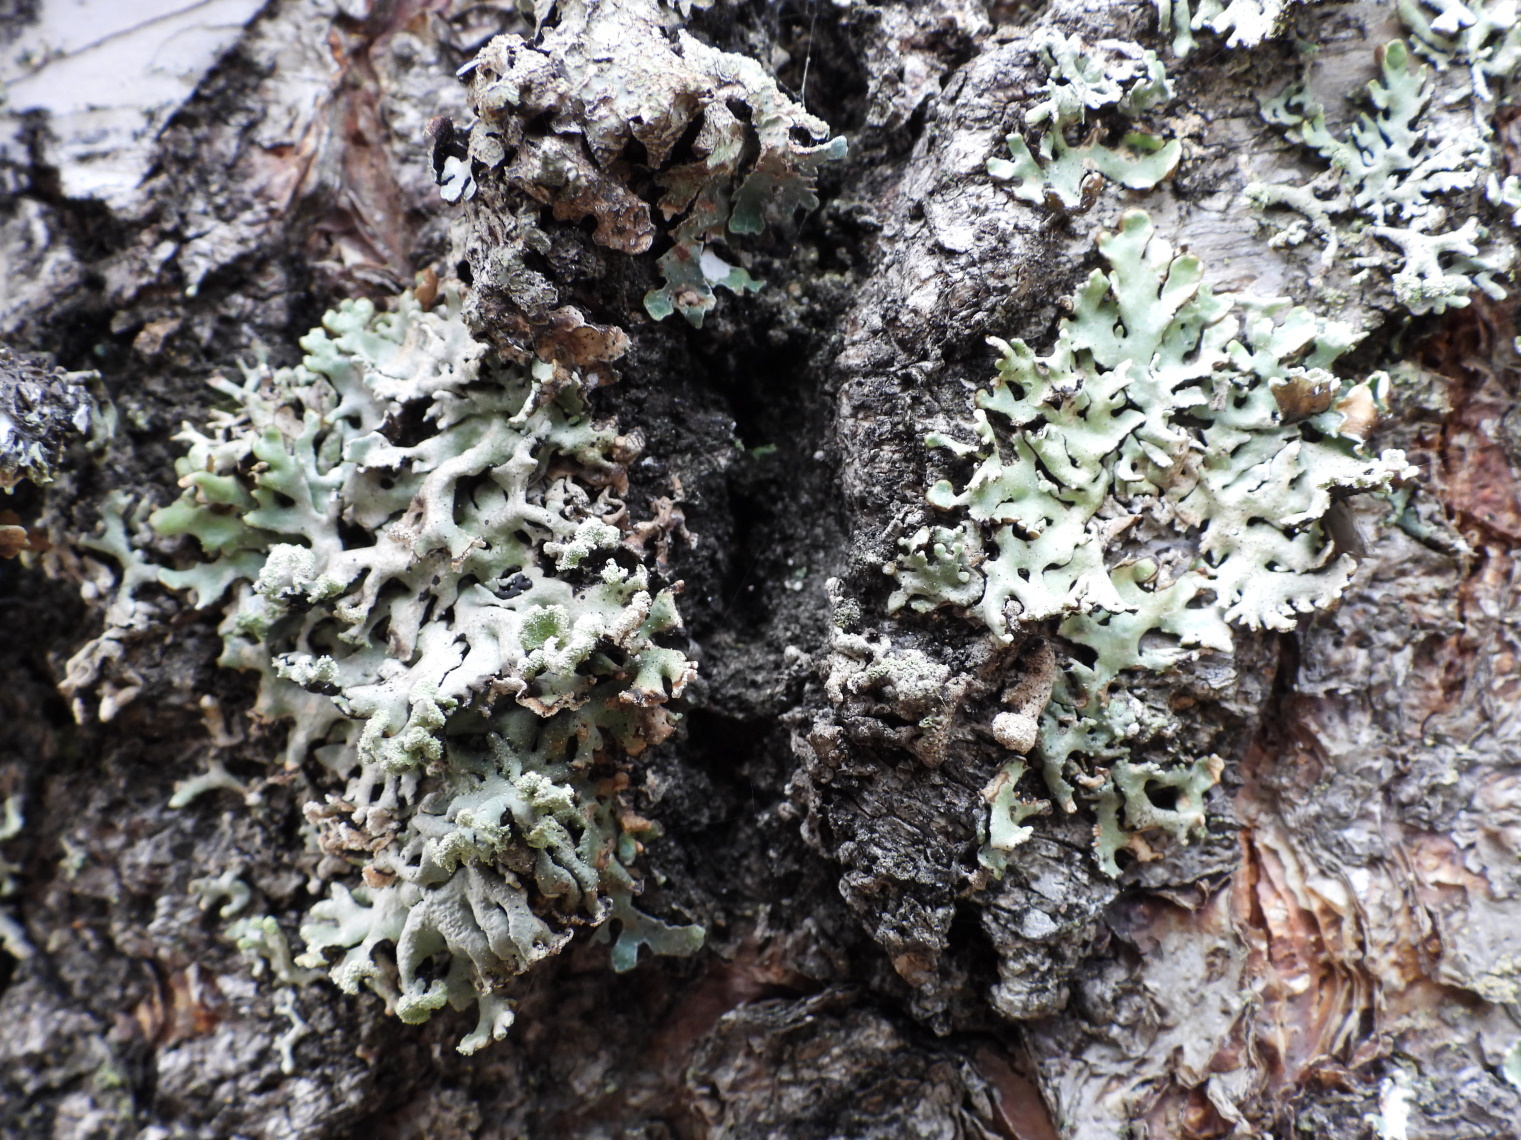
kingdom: Fungi
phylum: Ascomycota
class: Lecanoromycetes
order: Lecanorales
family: Parmeliaceae
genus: Hypogymnia
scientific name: Hypogymnia physodes
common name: Dark crottle
